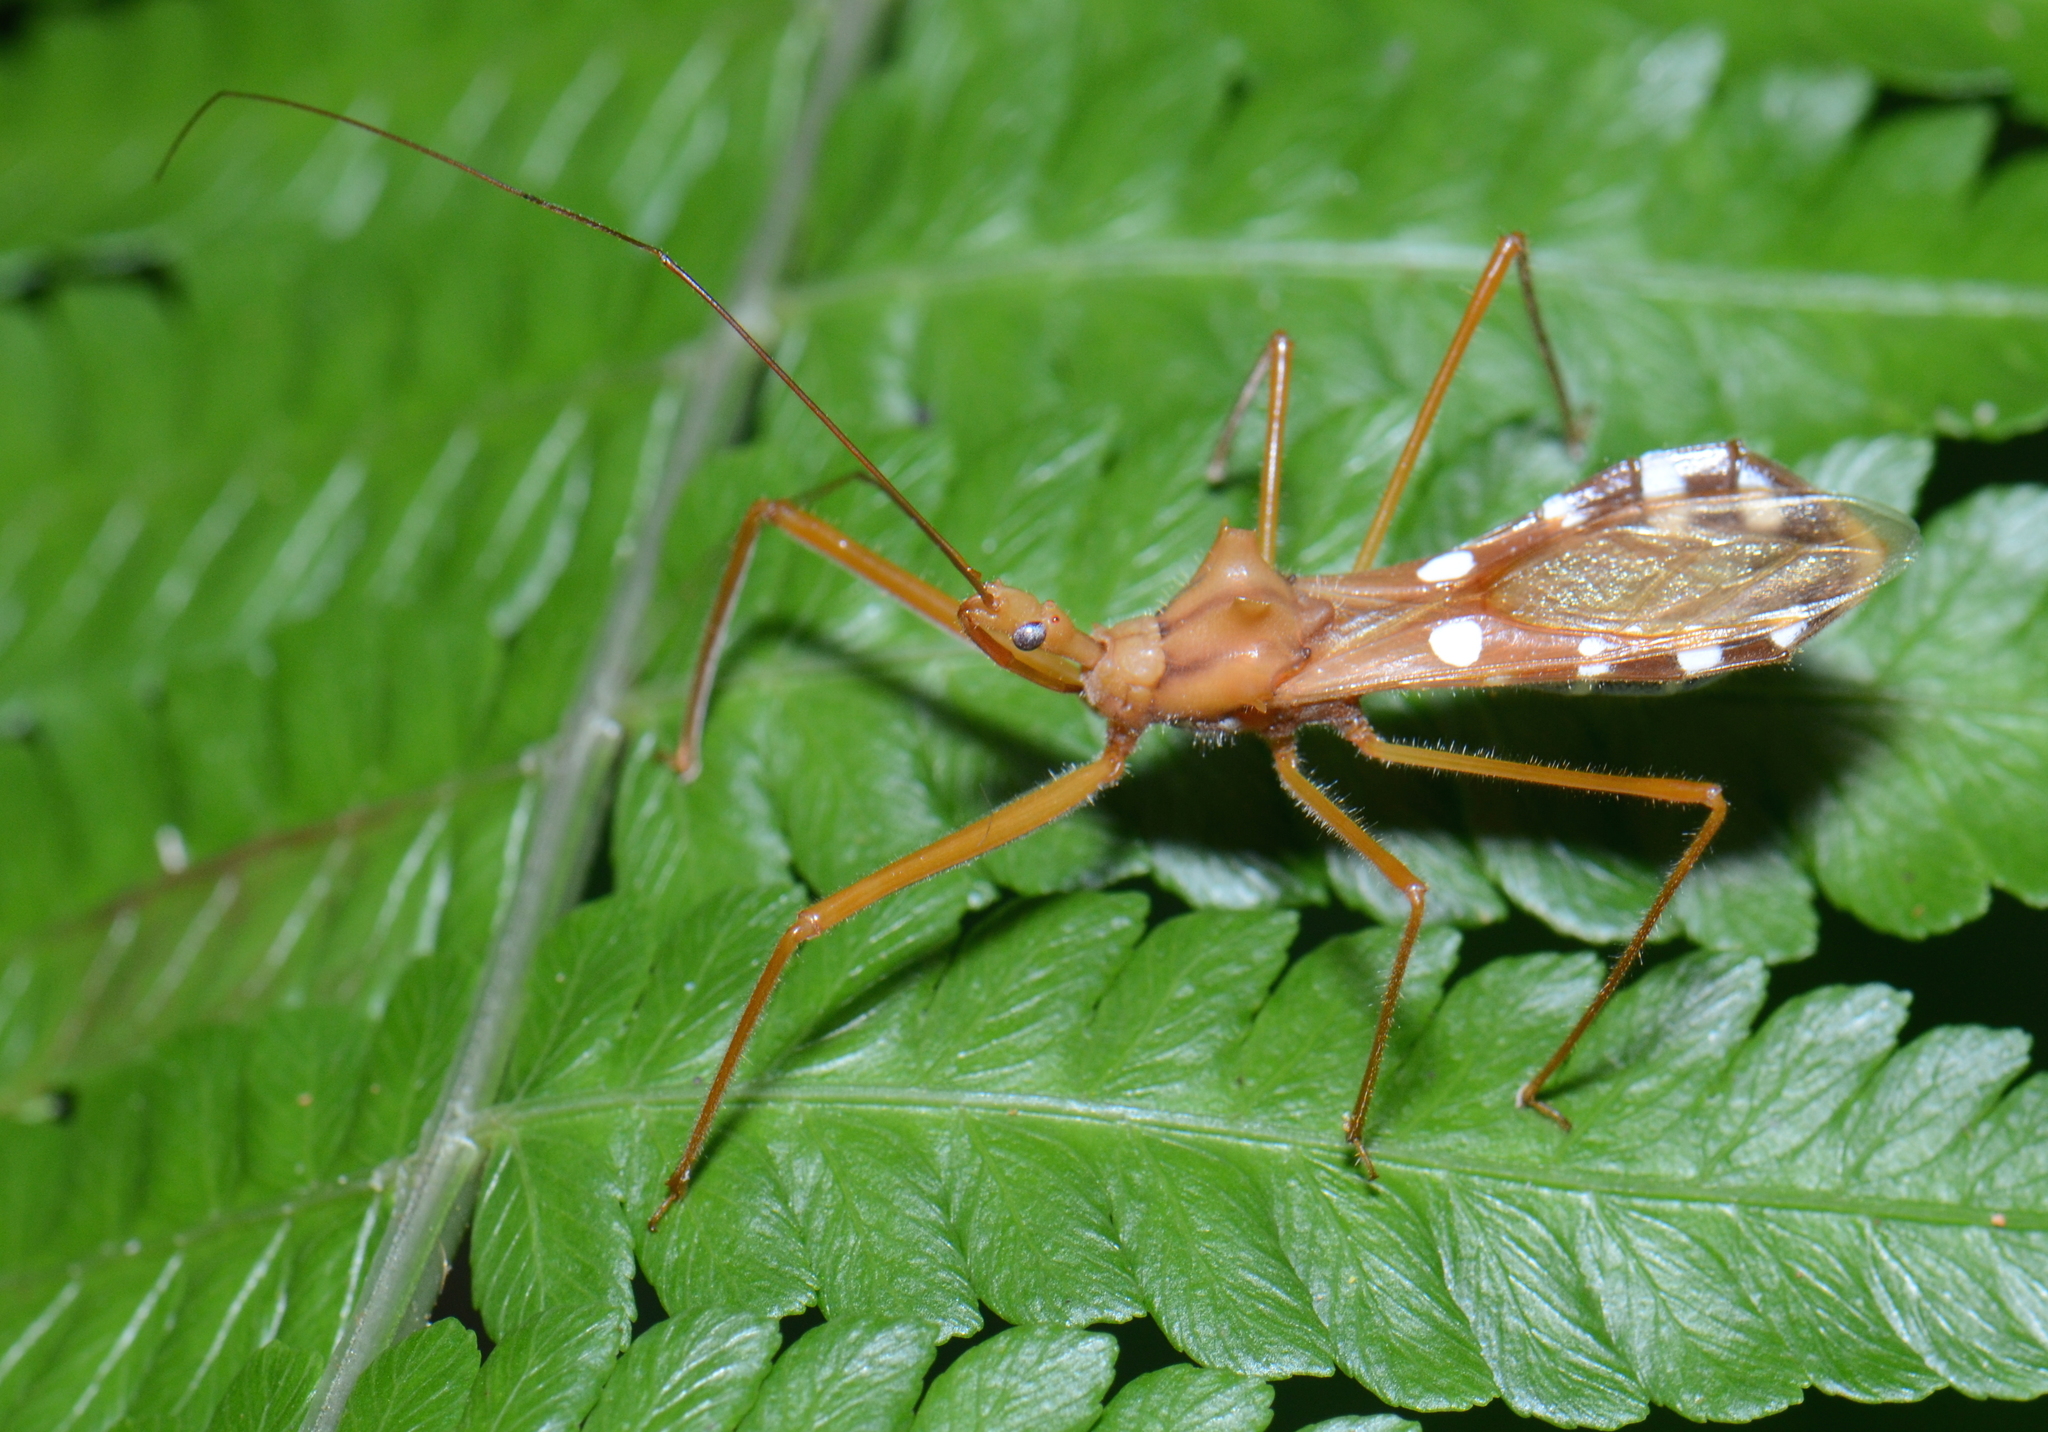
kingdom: Animalia
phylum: Arthropoda
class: Insecta
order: Hemiptera
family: Reduviidae
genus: Epidaus
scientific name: Epidaus latispinus
